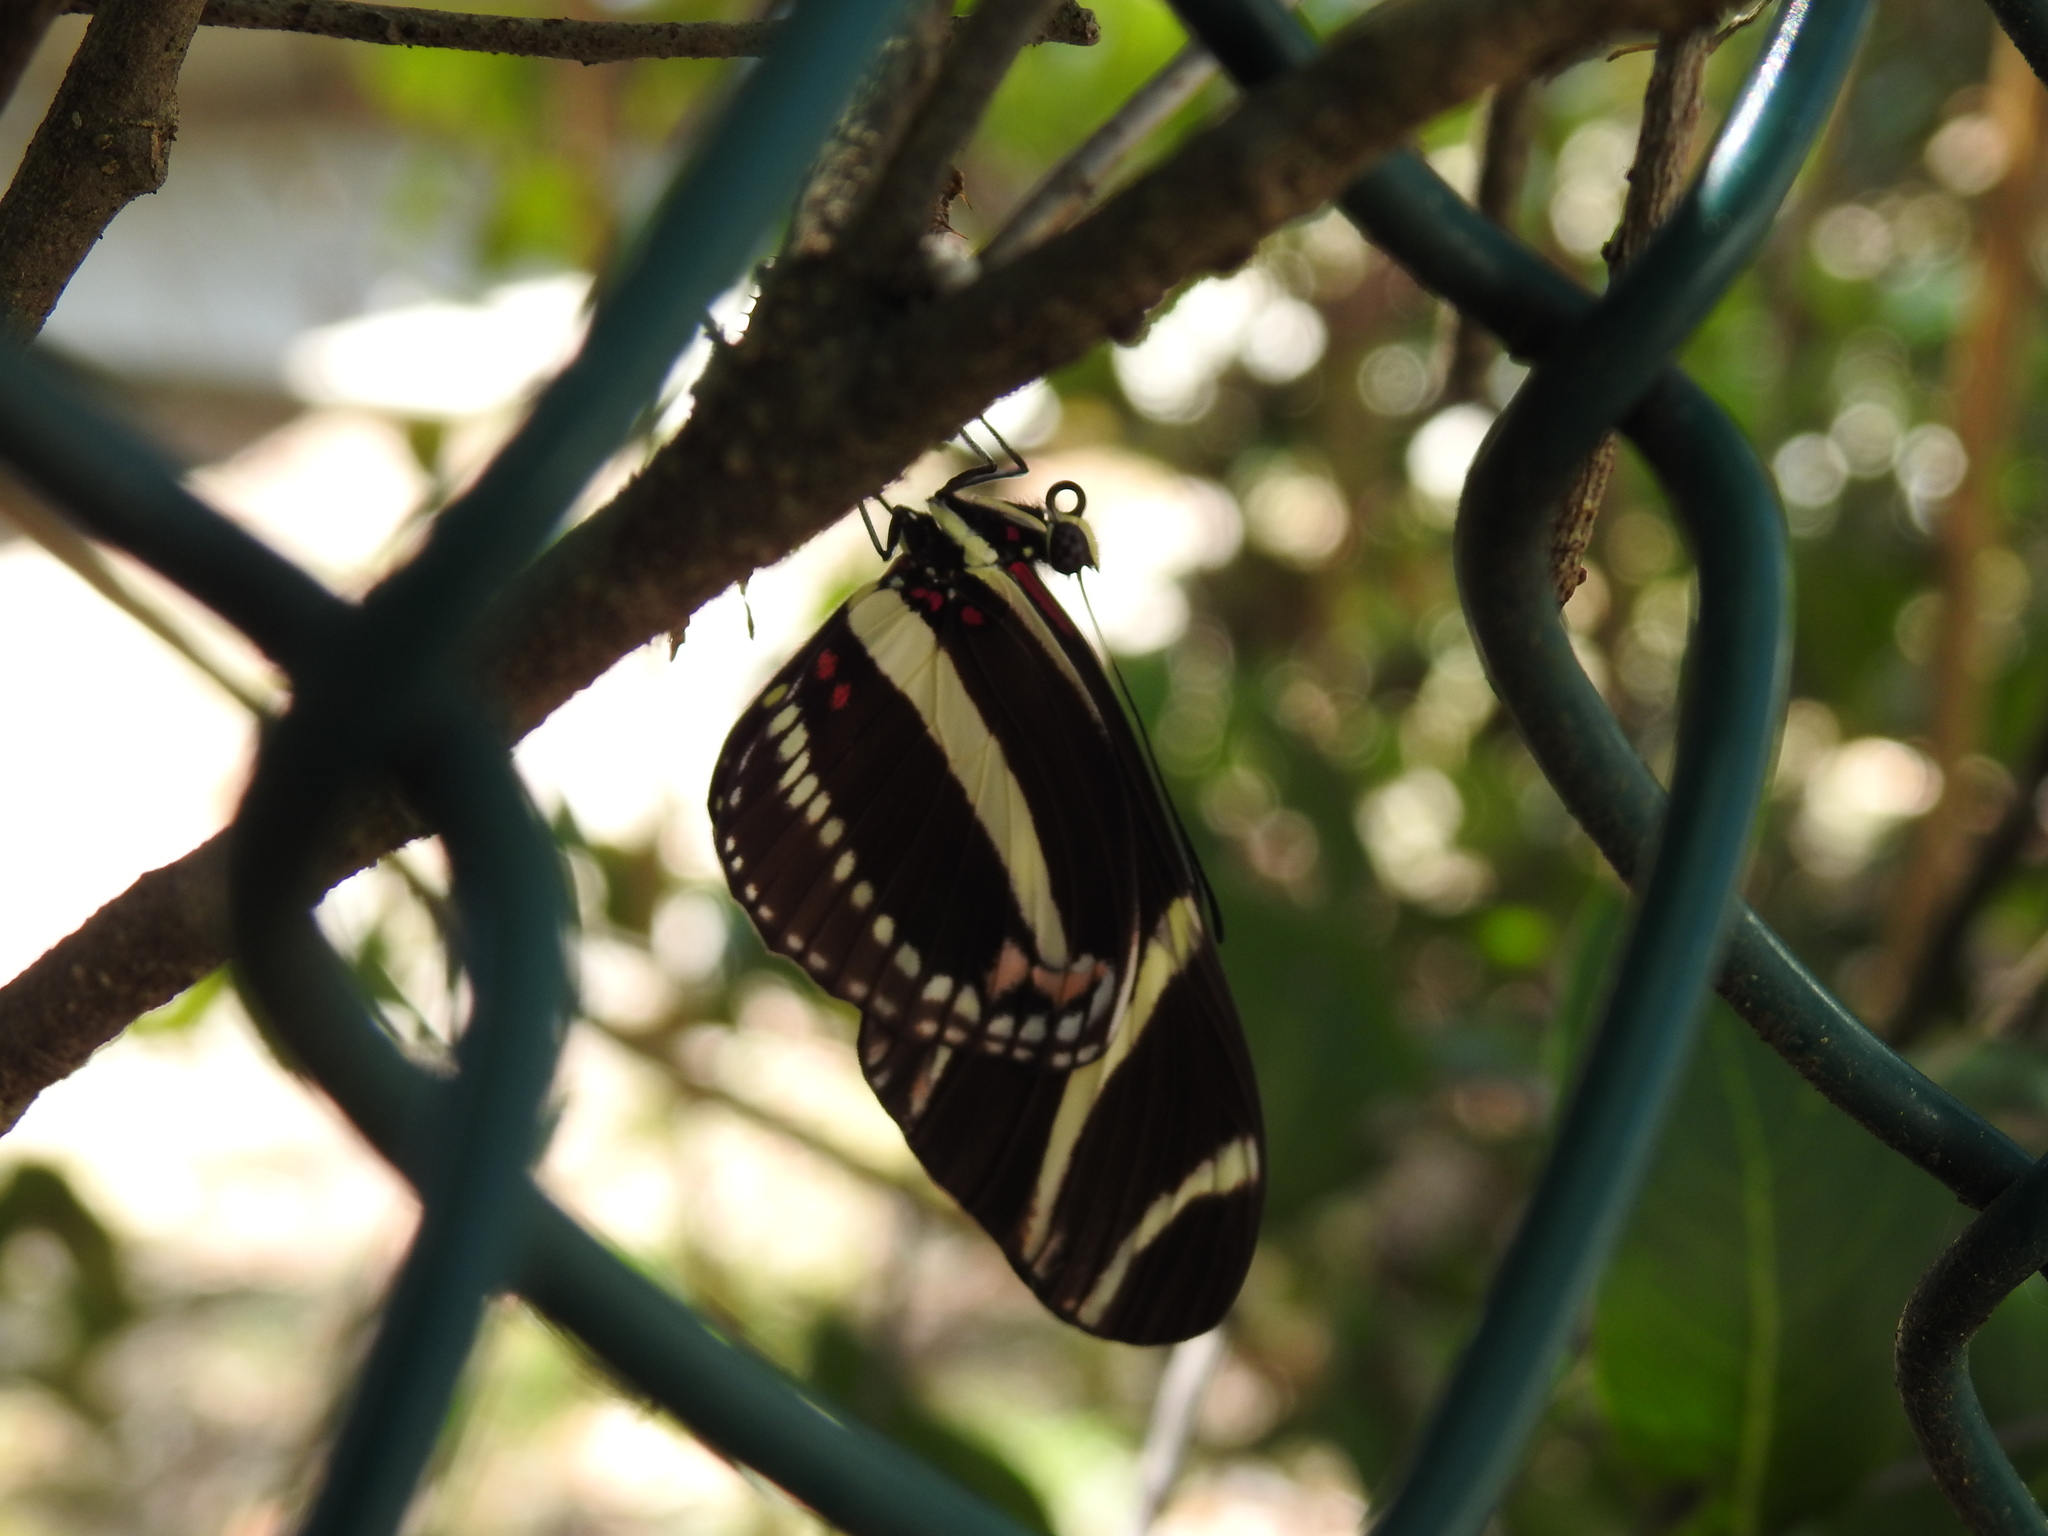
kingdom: Animalia
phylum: Arthropoda
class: Insecta
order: Lepidoptera
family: Nymphalidae
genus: Heliconius
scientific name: Heliconius charithonia
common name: Zebra long wing
